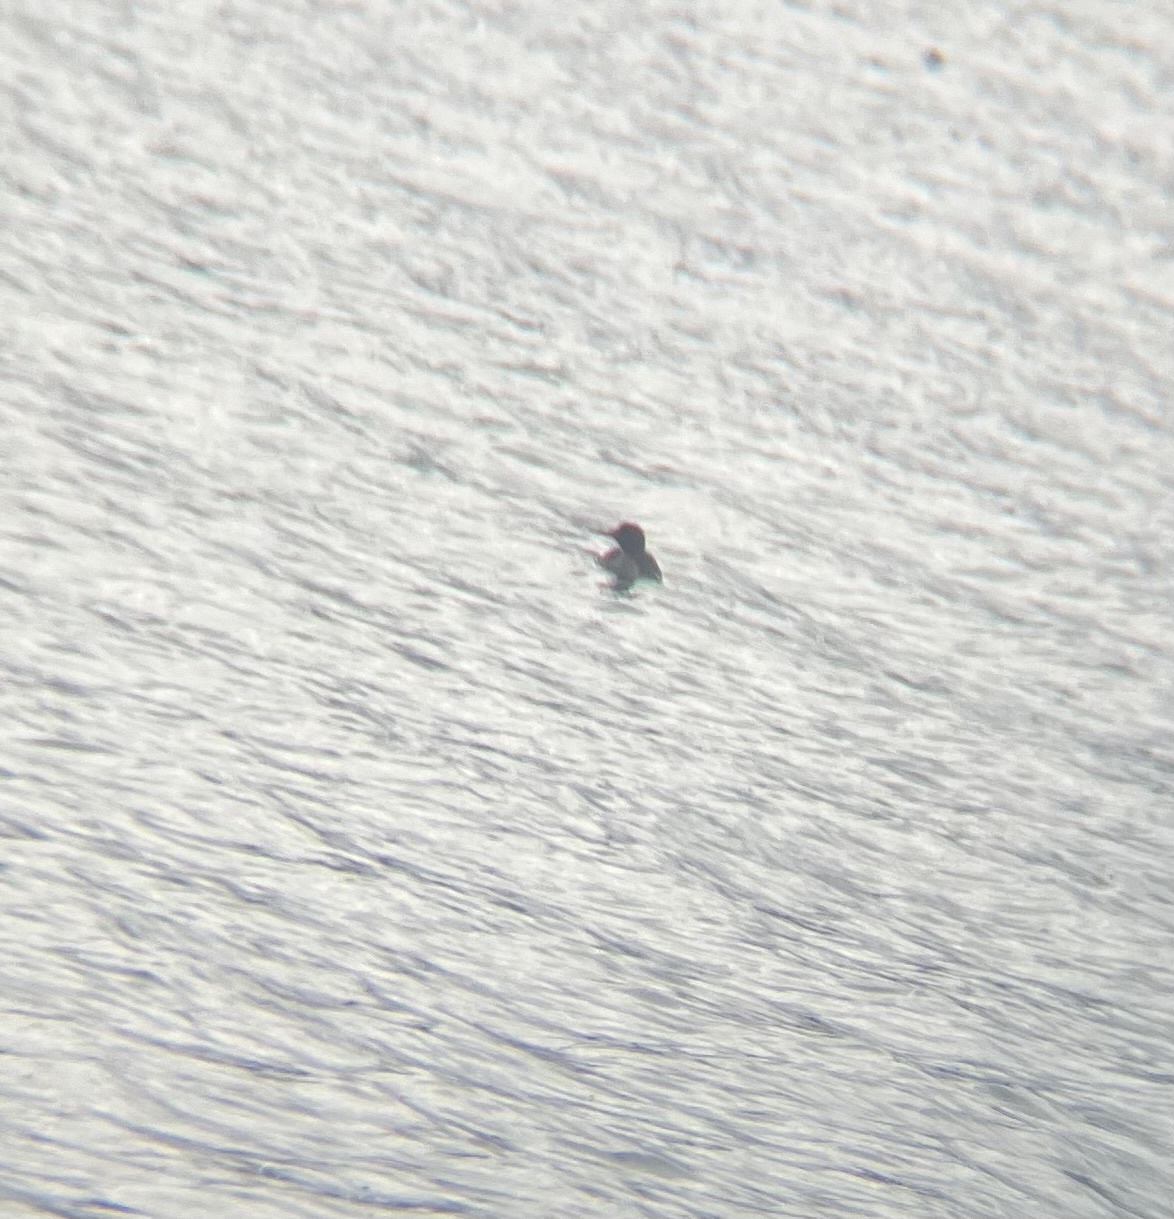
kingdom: Animalia
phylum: Chordata
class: Aves
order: Anseriformes
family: Anatidae
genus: Mergus
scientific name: Mergus serrator
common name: Red-breasted merganser
